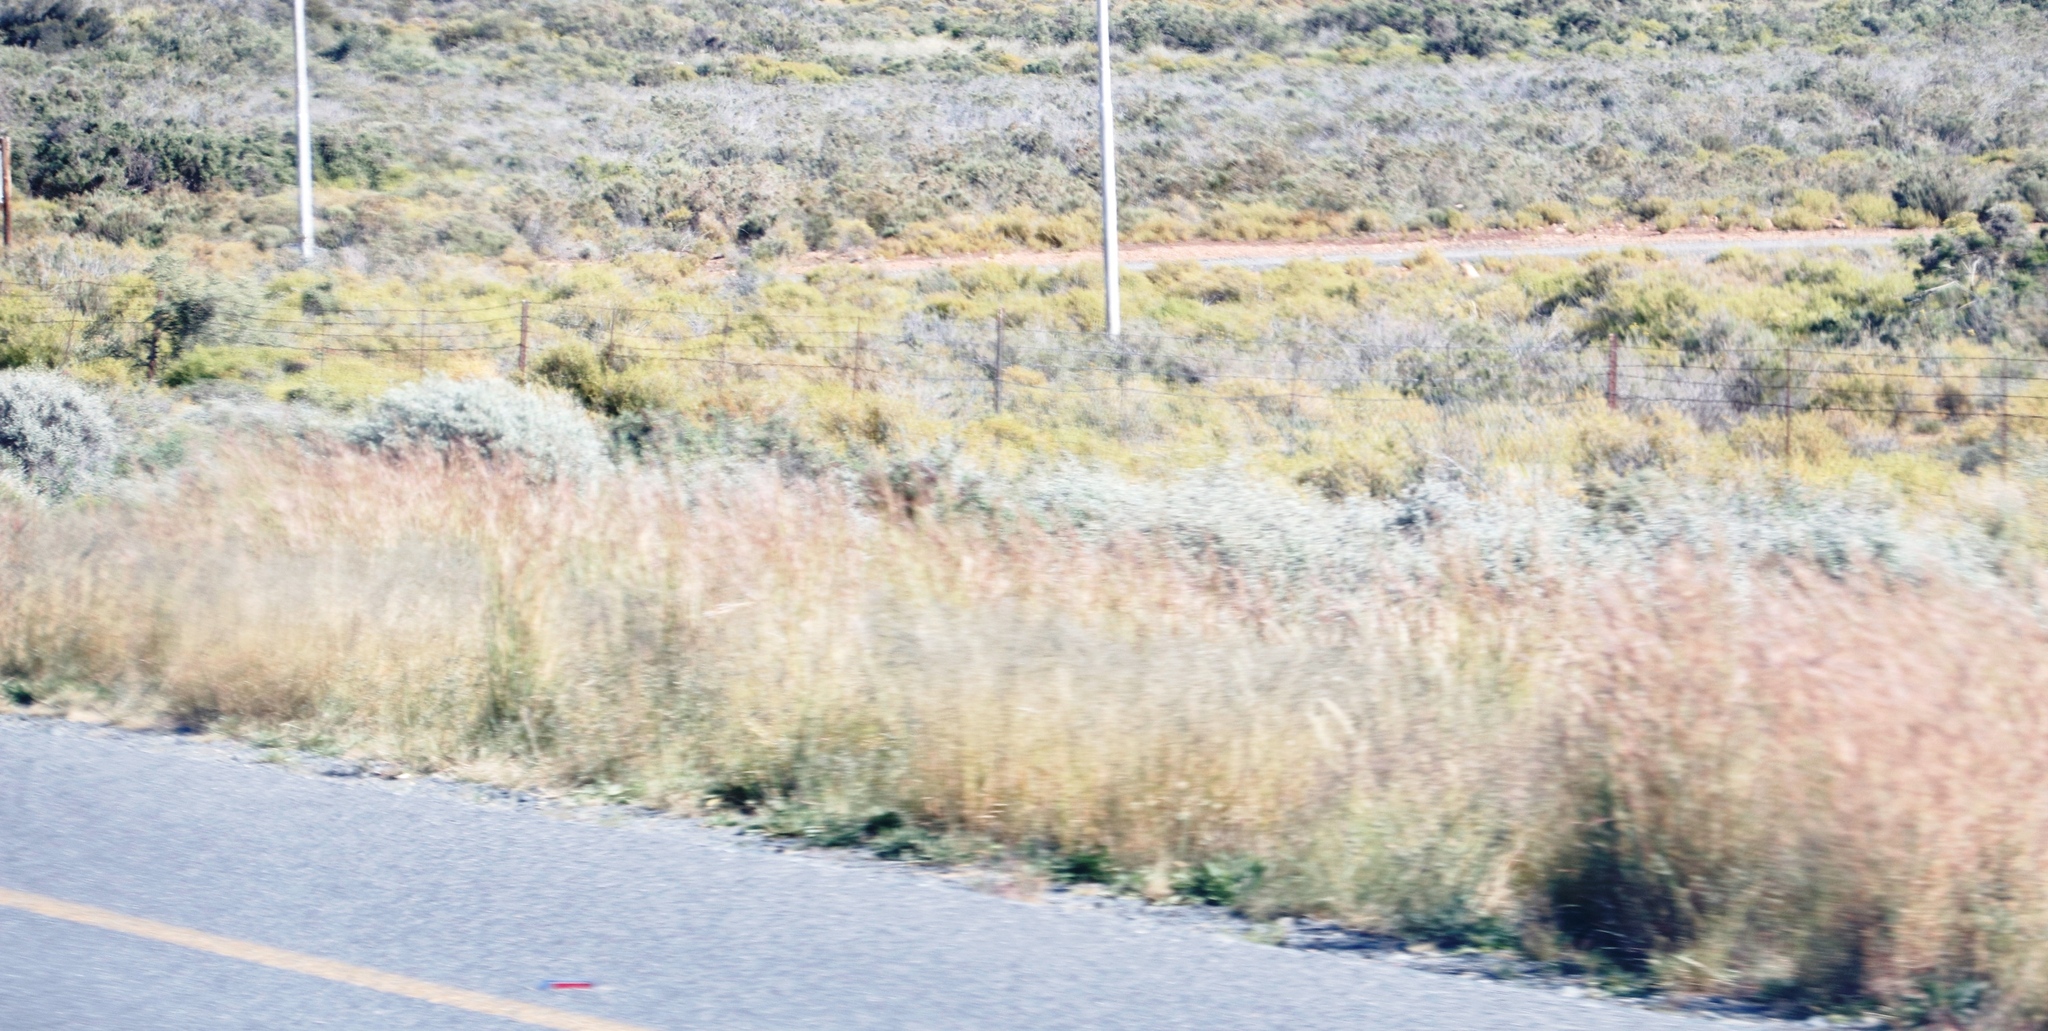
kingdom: Plantae
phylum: Tracheophyta
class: Magnoliopsida
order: Fabales
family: Fabaceae
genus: Medicago
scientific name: Medicago sativa
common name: Alfalfa
